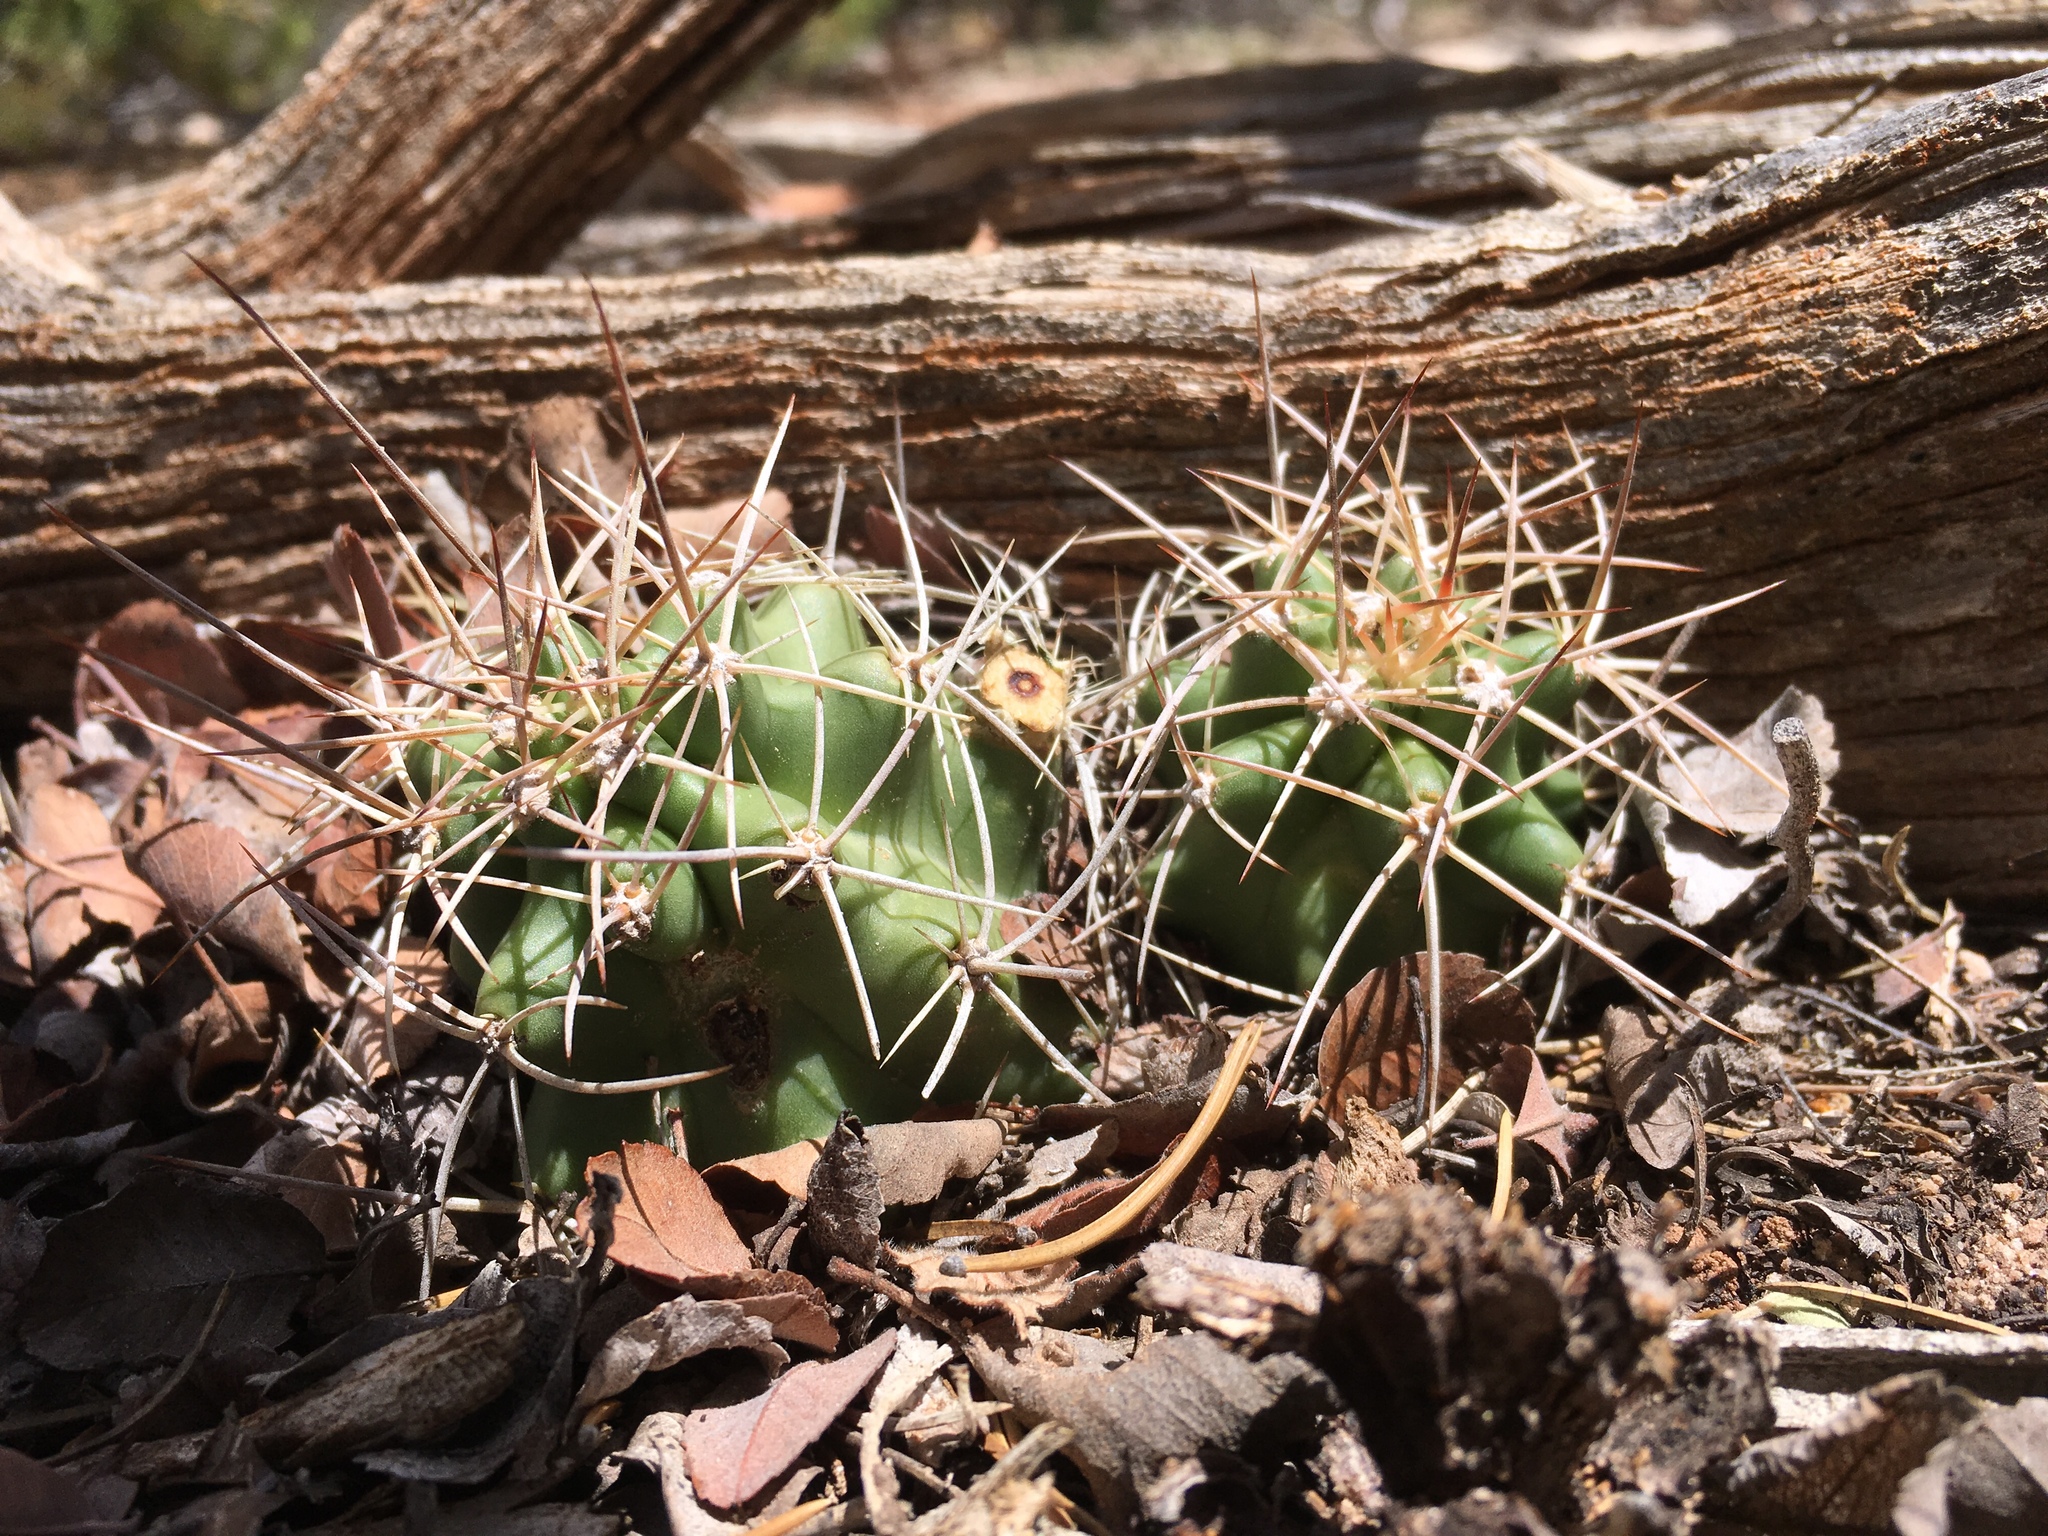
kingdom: Plantae
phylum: Tracheophyta
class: Magnoliopsida
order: Caryophyllales
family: Cactaceae
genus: Echinocereus
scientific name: Echinocereus triglochidiatus
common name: Claretcup hedgehog
